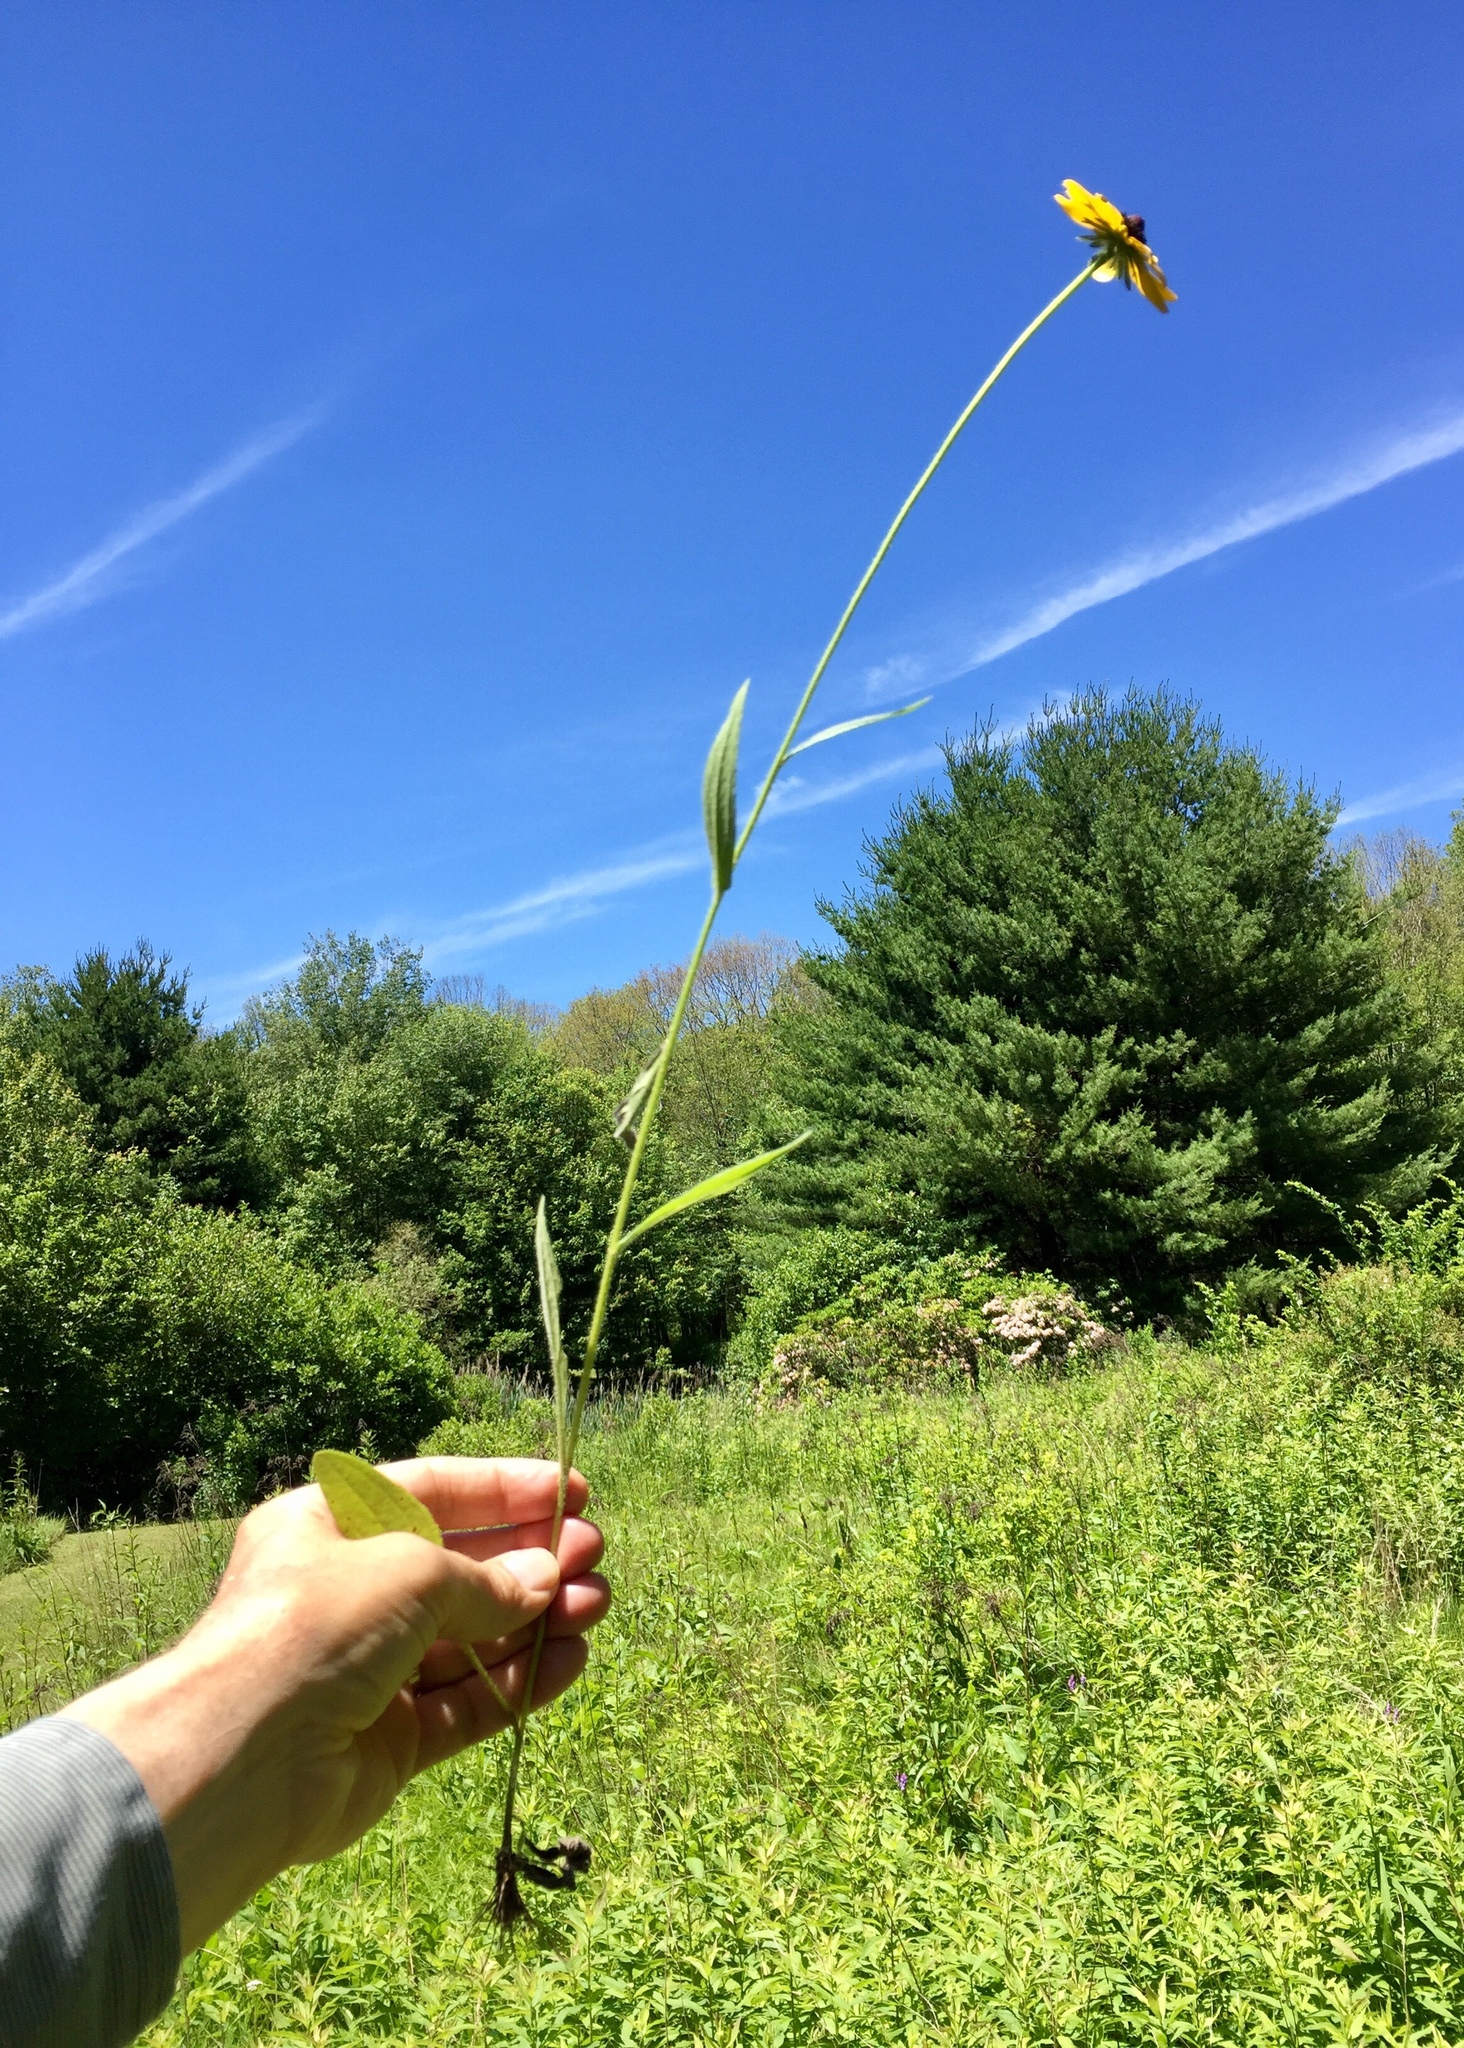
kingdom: Plantae
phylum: Tracheophyta
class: Magnoliopsida
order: Asterales
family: Asteraceae
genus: Rudbeckia
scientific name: Rudbeckia hirta
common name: Black-eyed-susan
